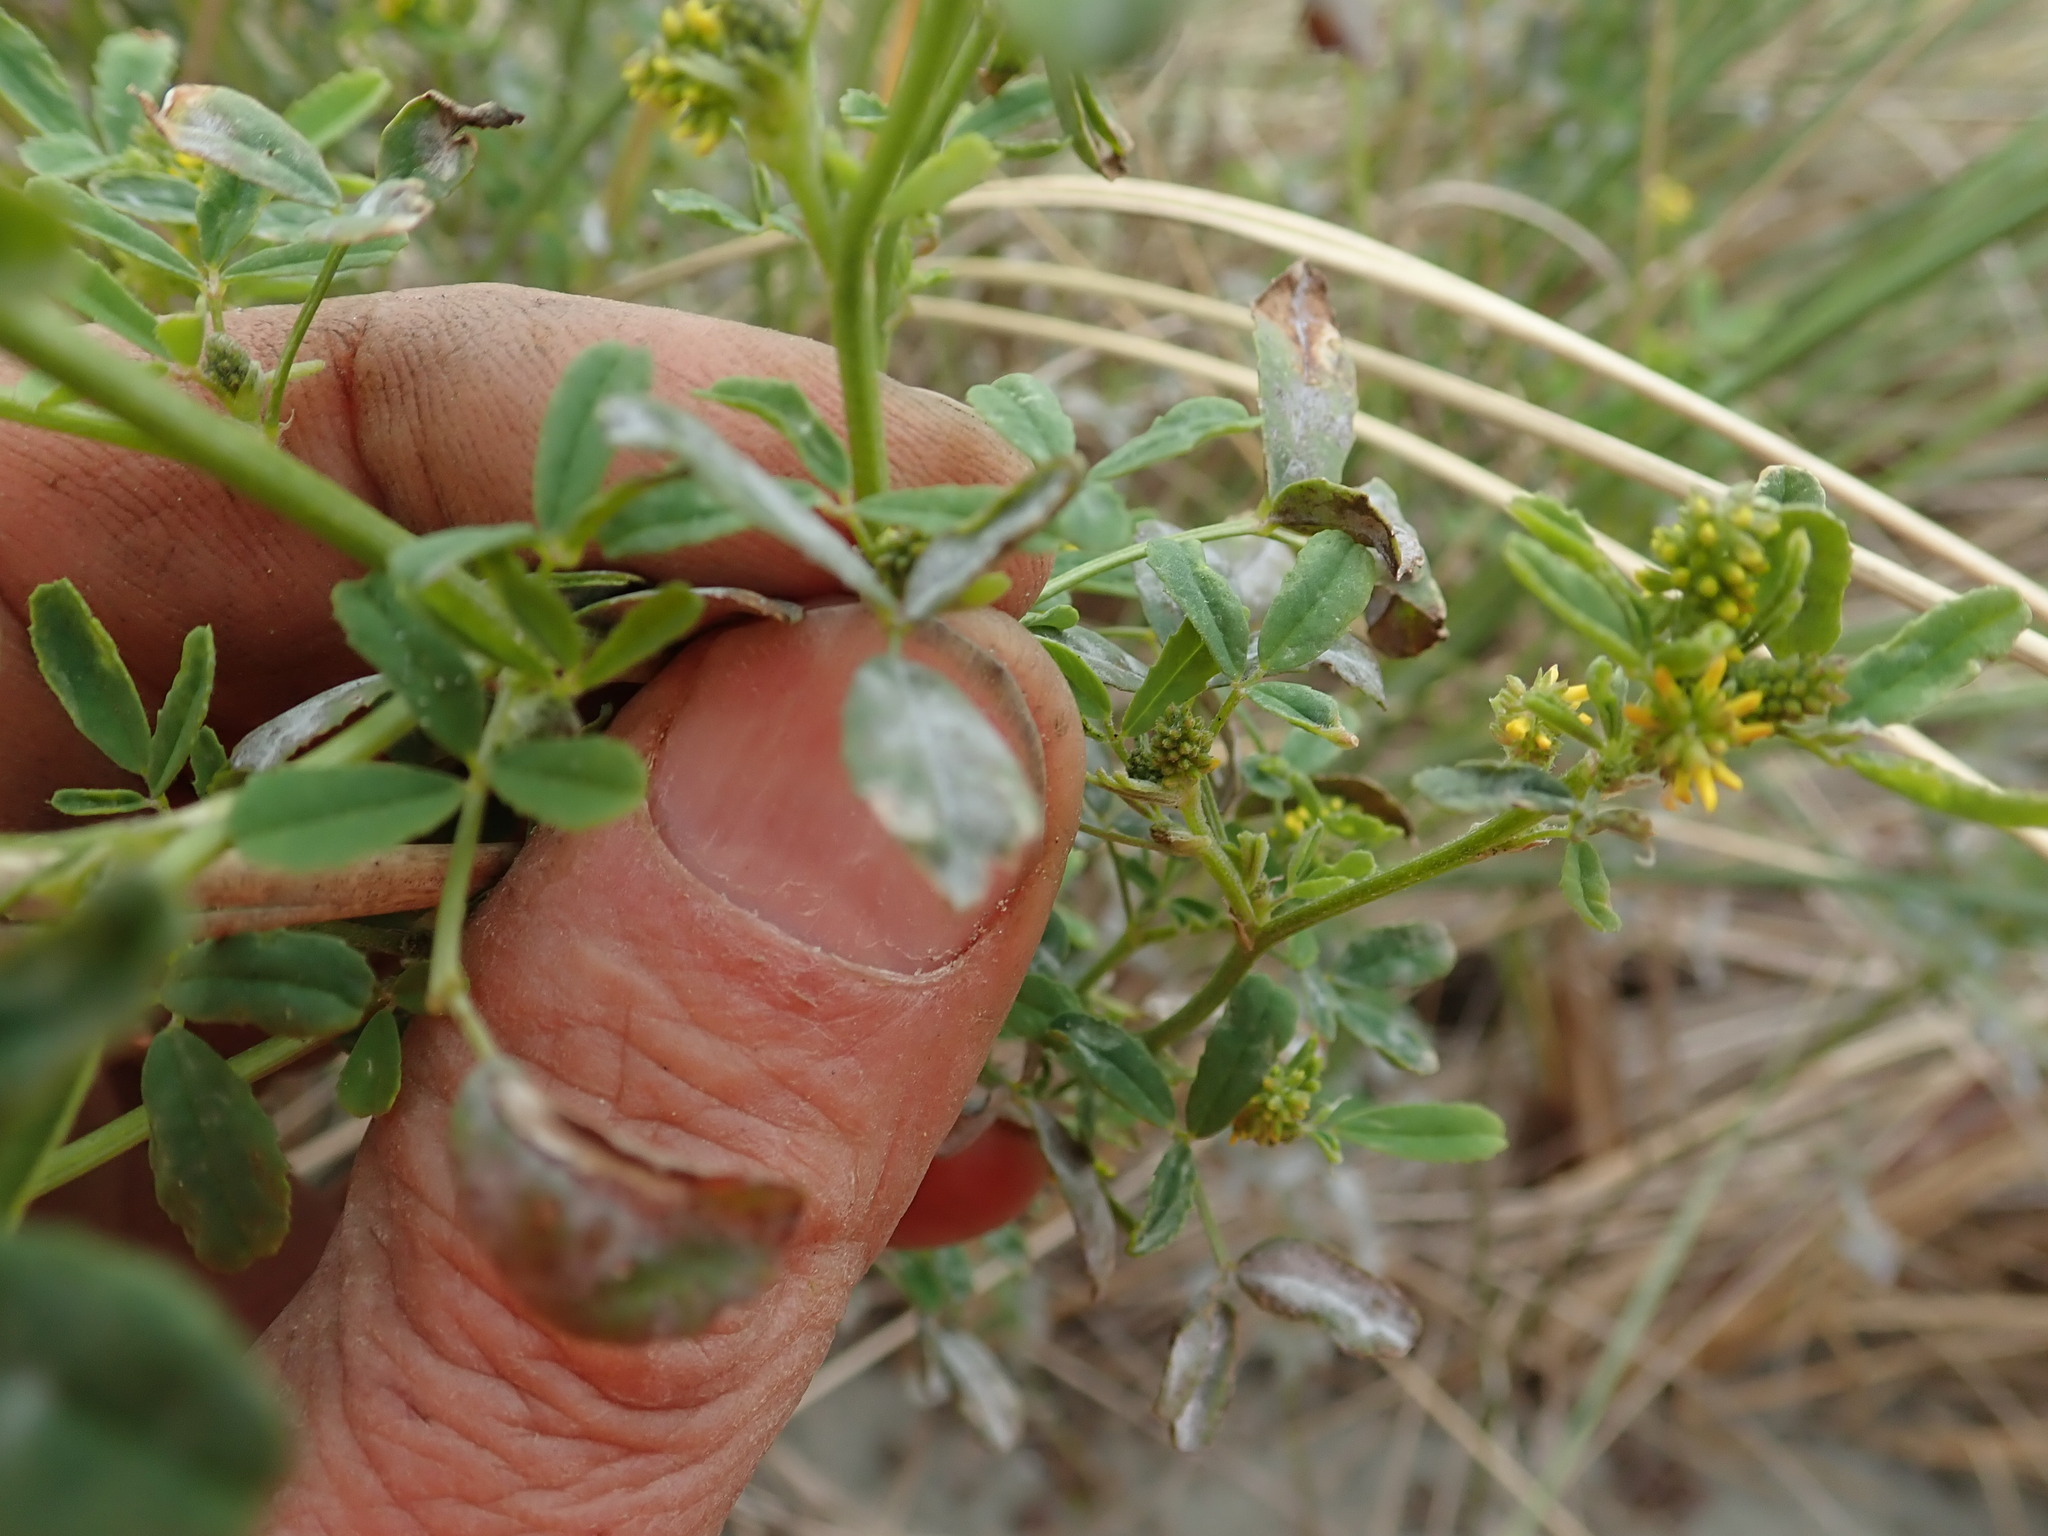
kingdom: Plantae
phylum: Tracheophyta
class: Magnoliopsida
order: Fabales
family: Fabaceae
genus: Melilotus
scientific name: Melilotus indicus
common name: Small melilot
